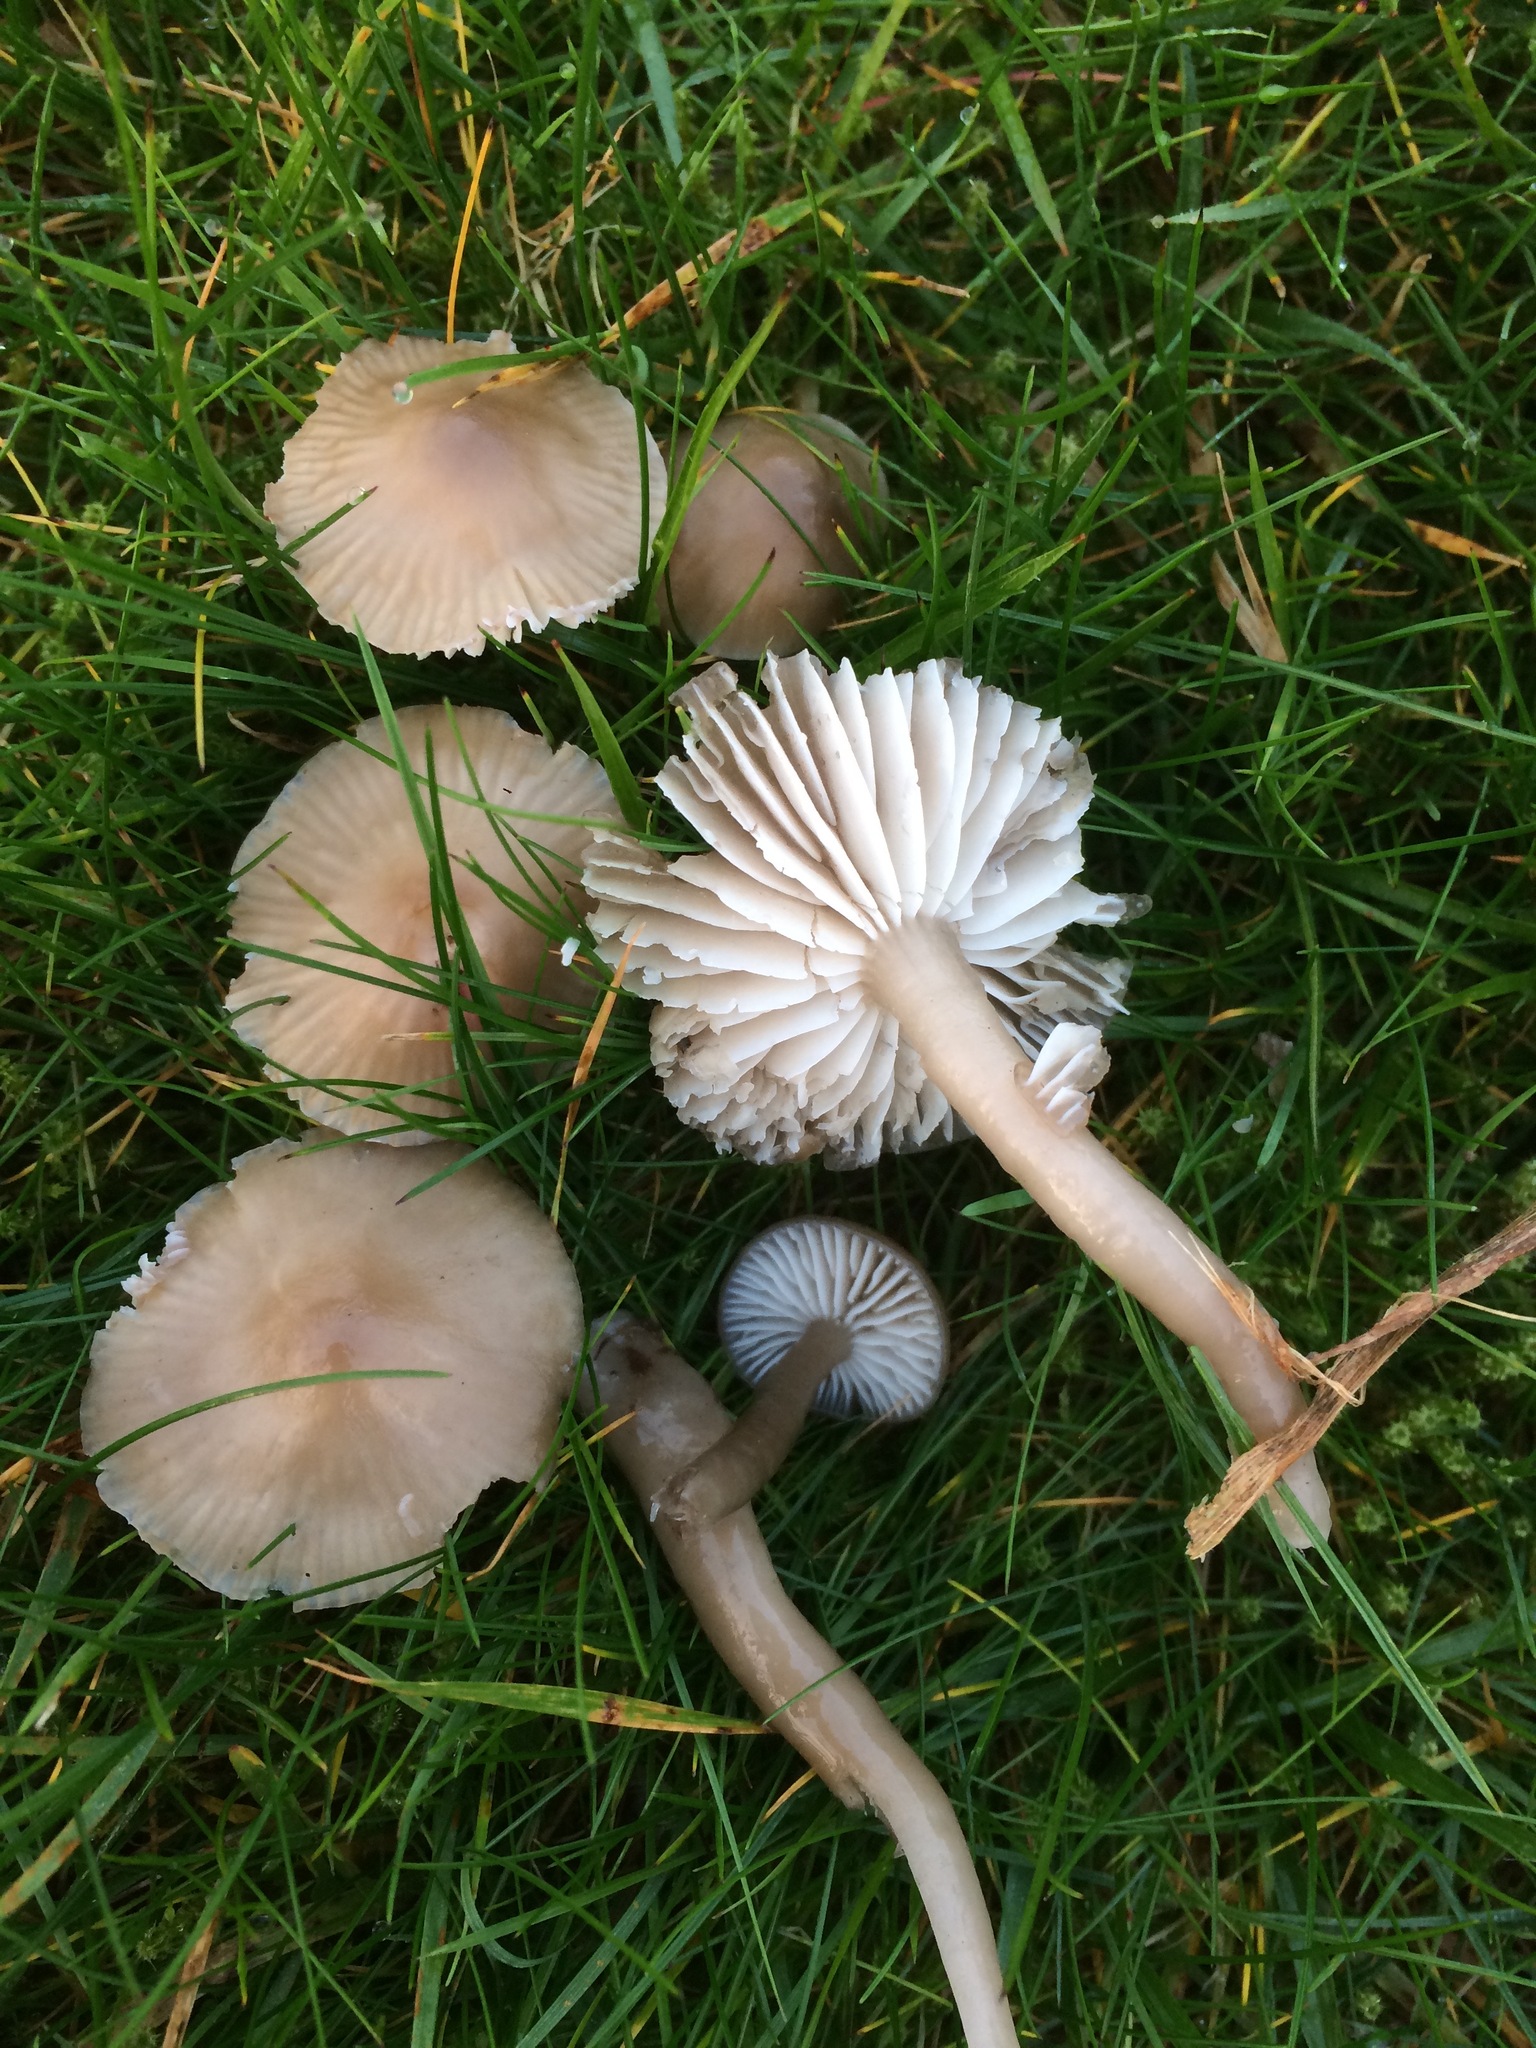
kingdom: Fungi
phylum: Basidiomycota
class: Agaricomycetes
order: Agaricales
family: Hygrophoraceae
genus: Gliophorus
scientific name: Gliophorus irrigatus
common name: Slimy waxcap
